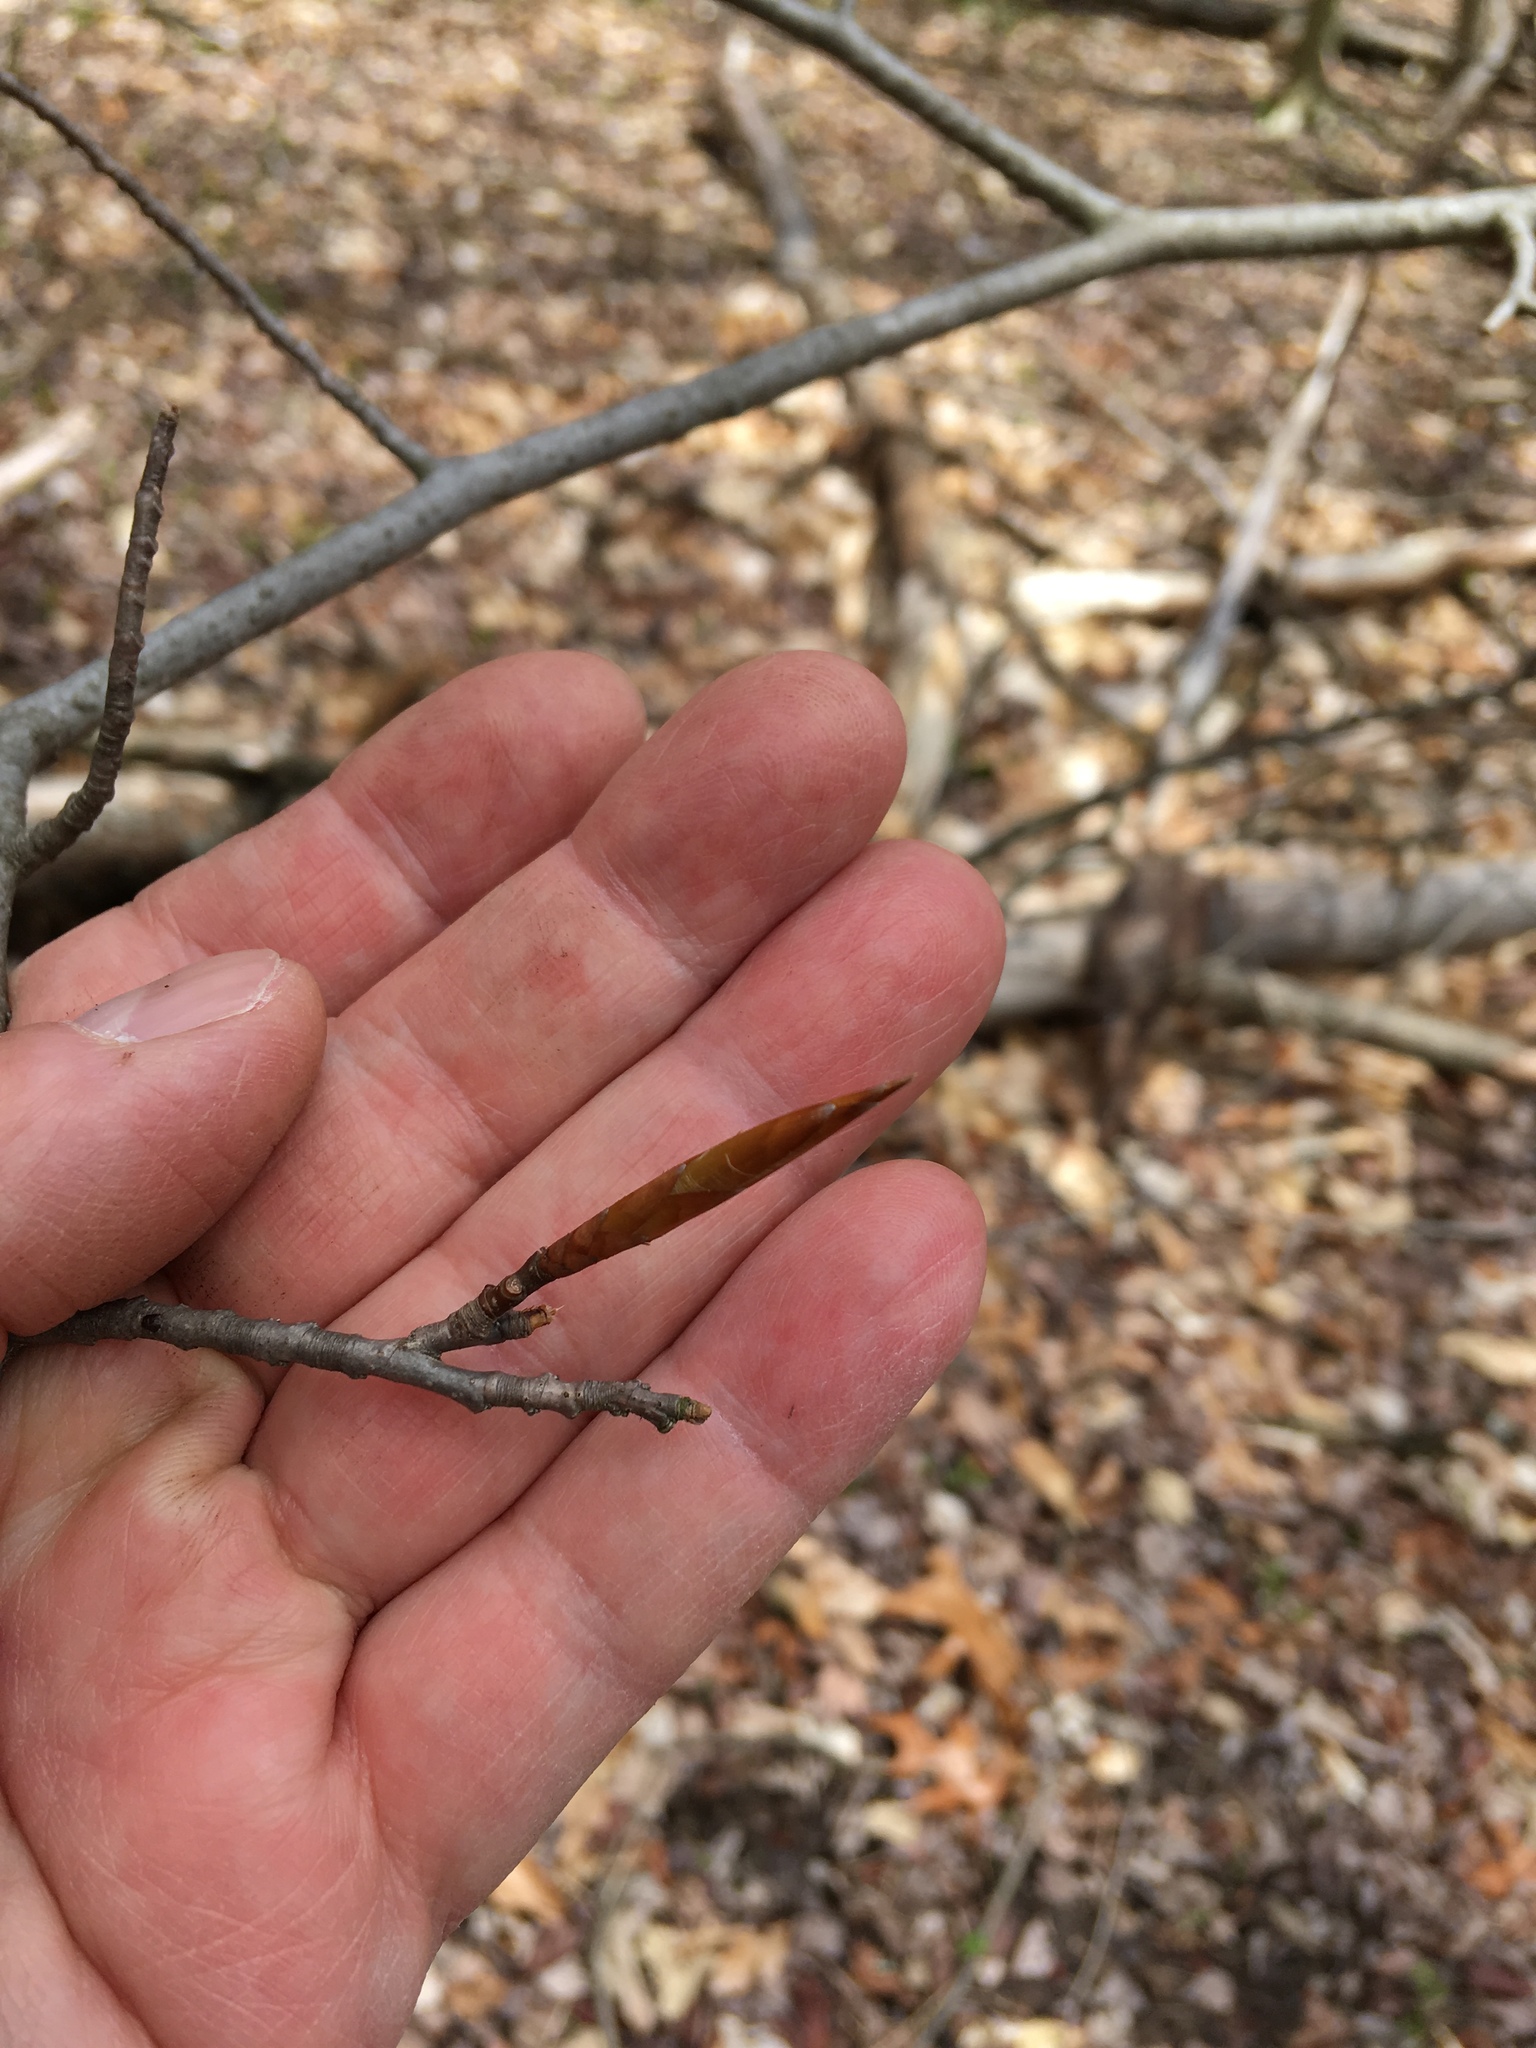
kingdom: Plantae
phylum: Tracheophyta
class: Magnoliopsida
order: Fagales
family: Fagaceae
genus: Fagus
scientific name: Fagus grandifolia
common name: American beech
